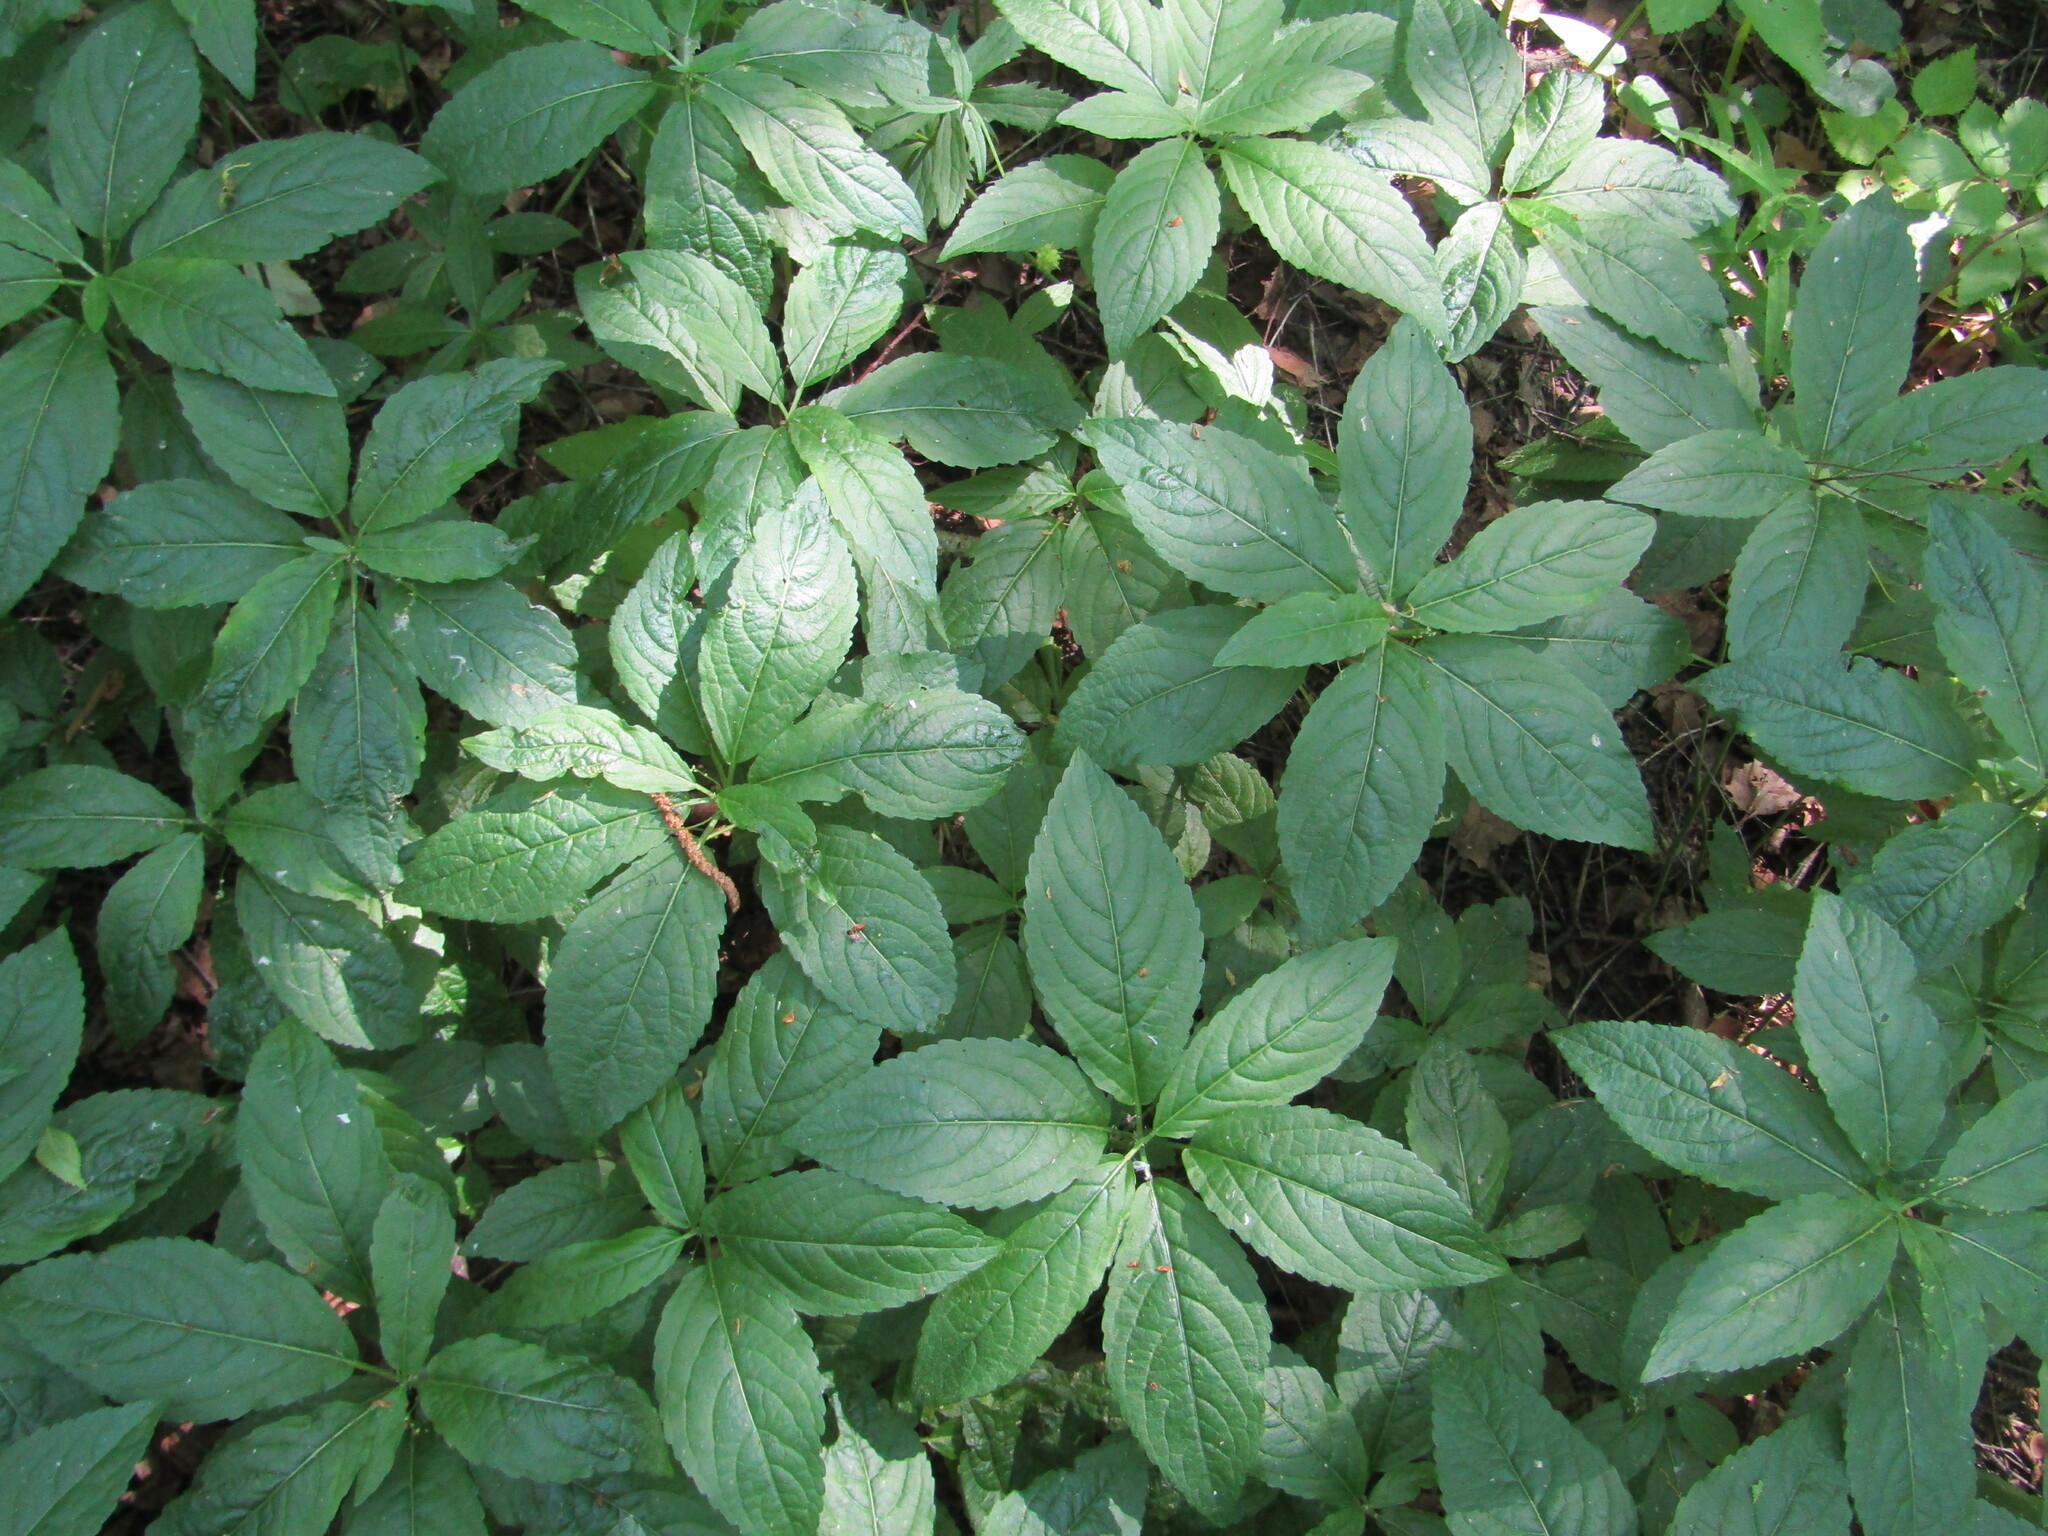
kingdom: Plantae
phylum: Tracheophyta
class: Magnoliopsida
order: Malpighiales
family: Euphorbiaceae
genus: Mercurialis
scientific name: Mercurialis perennis
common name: Dog mercury
